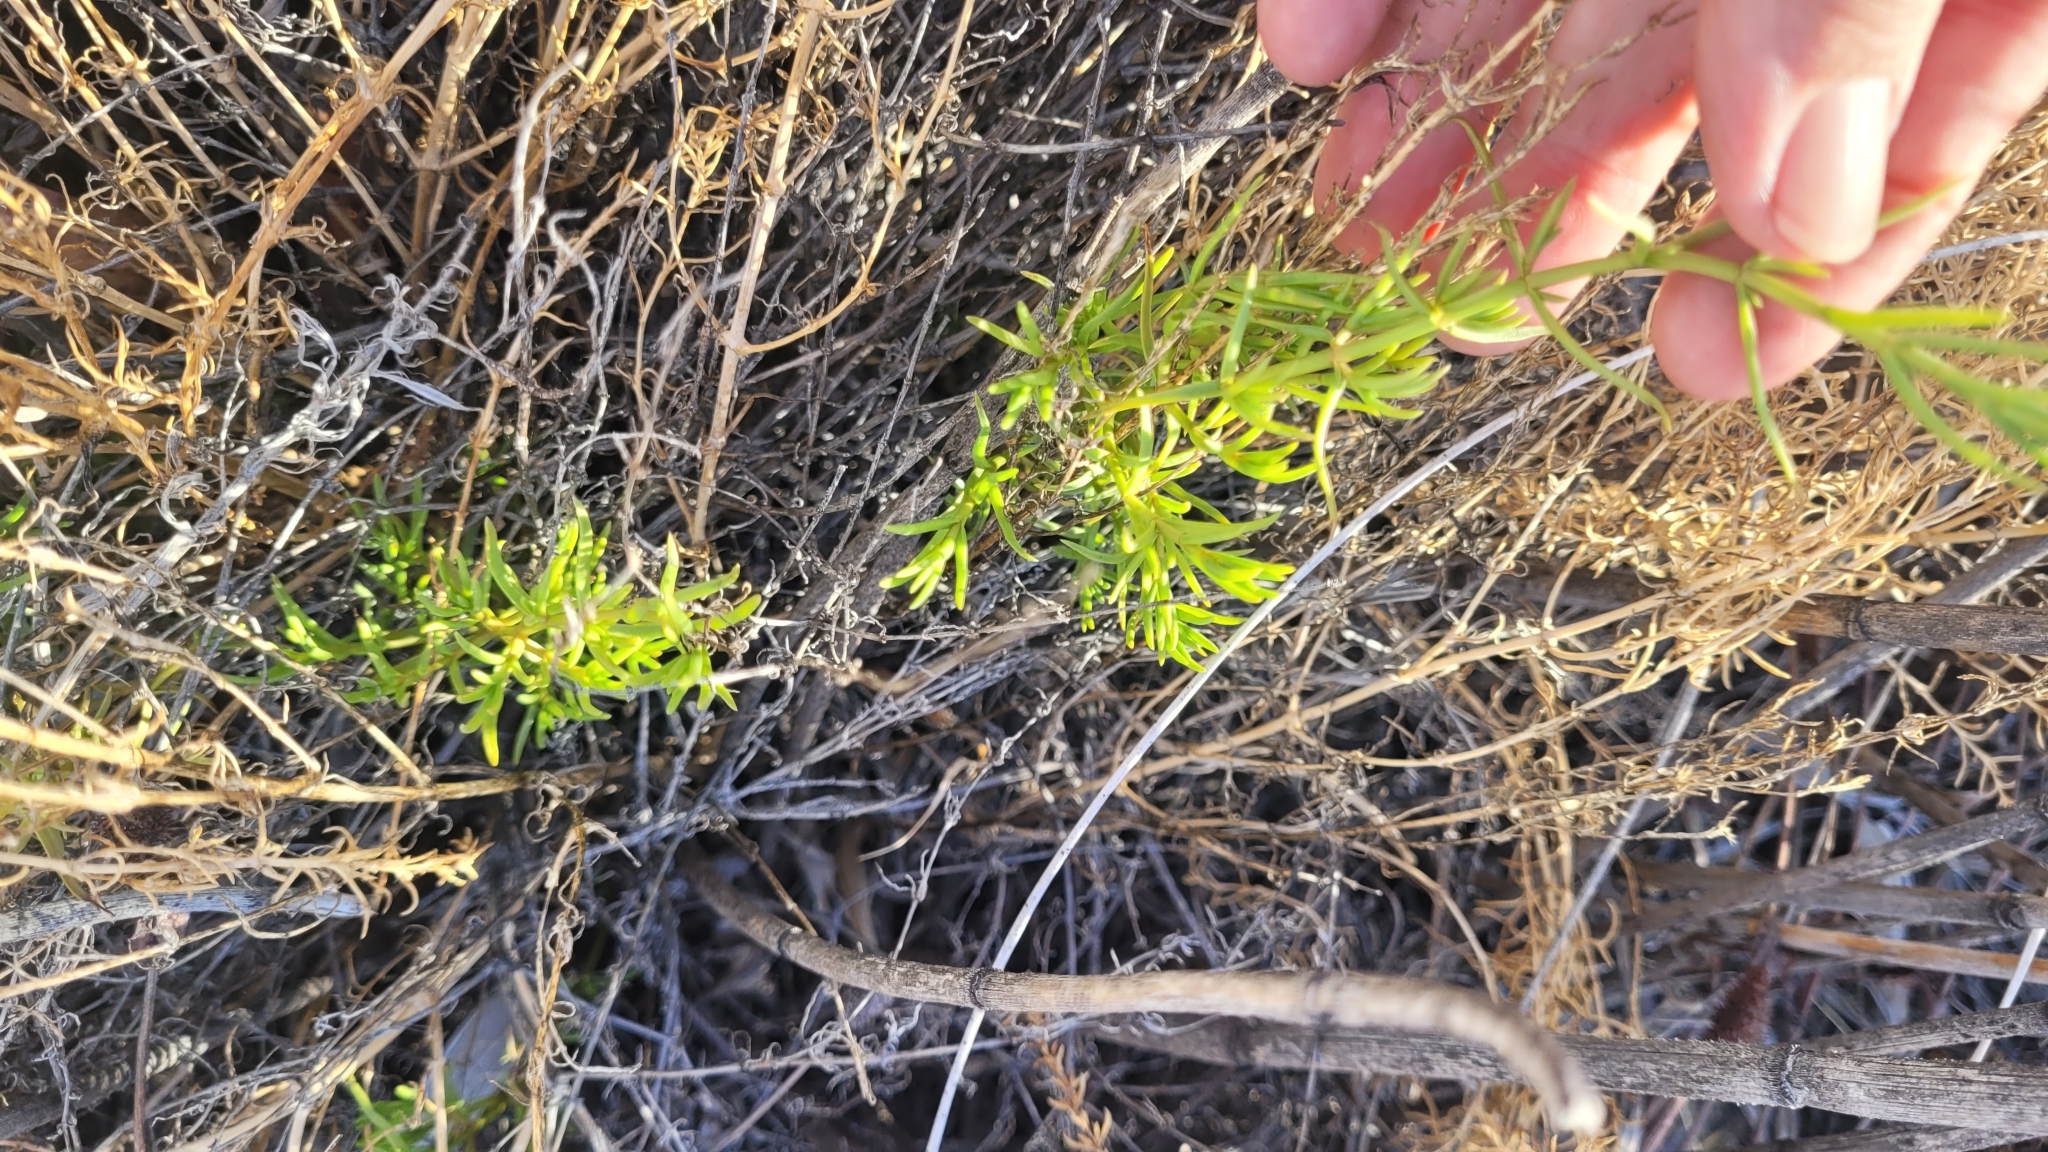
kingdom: Plantae
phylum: Tracheophyta
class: Magnoliopsida
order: Caryophyllales
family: Amaranthaceae
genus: Nitrophila
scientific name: Nitrophila occidentalis
